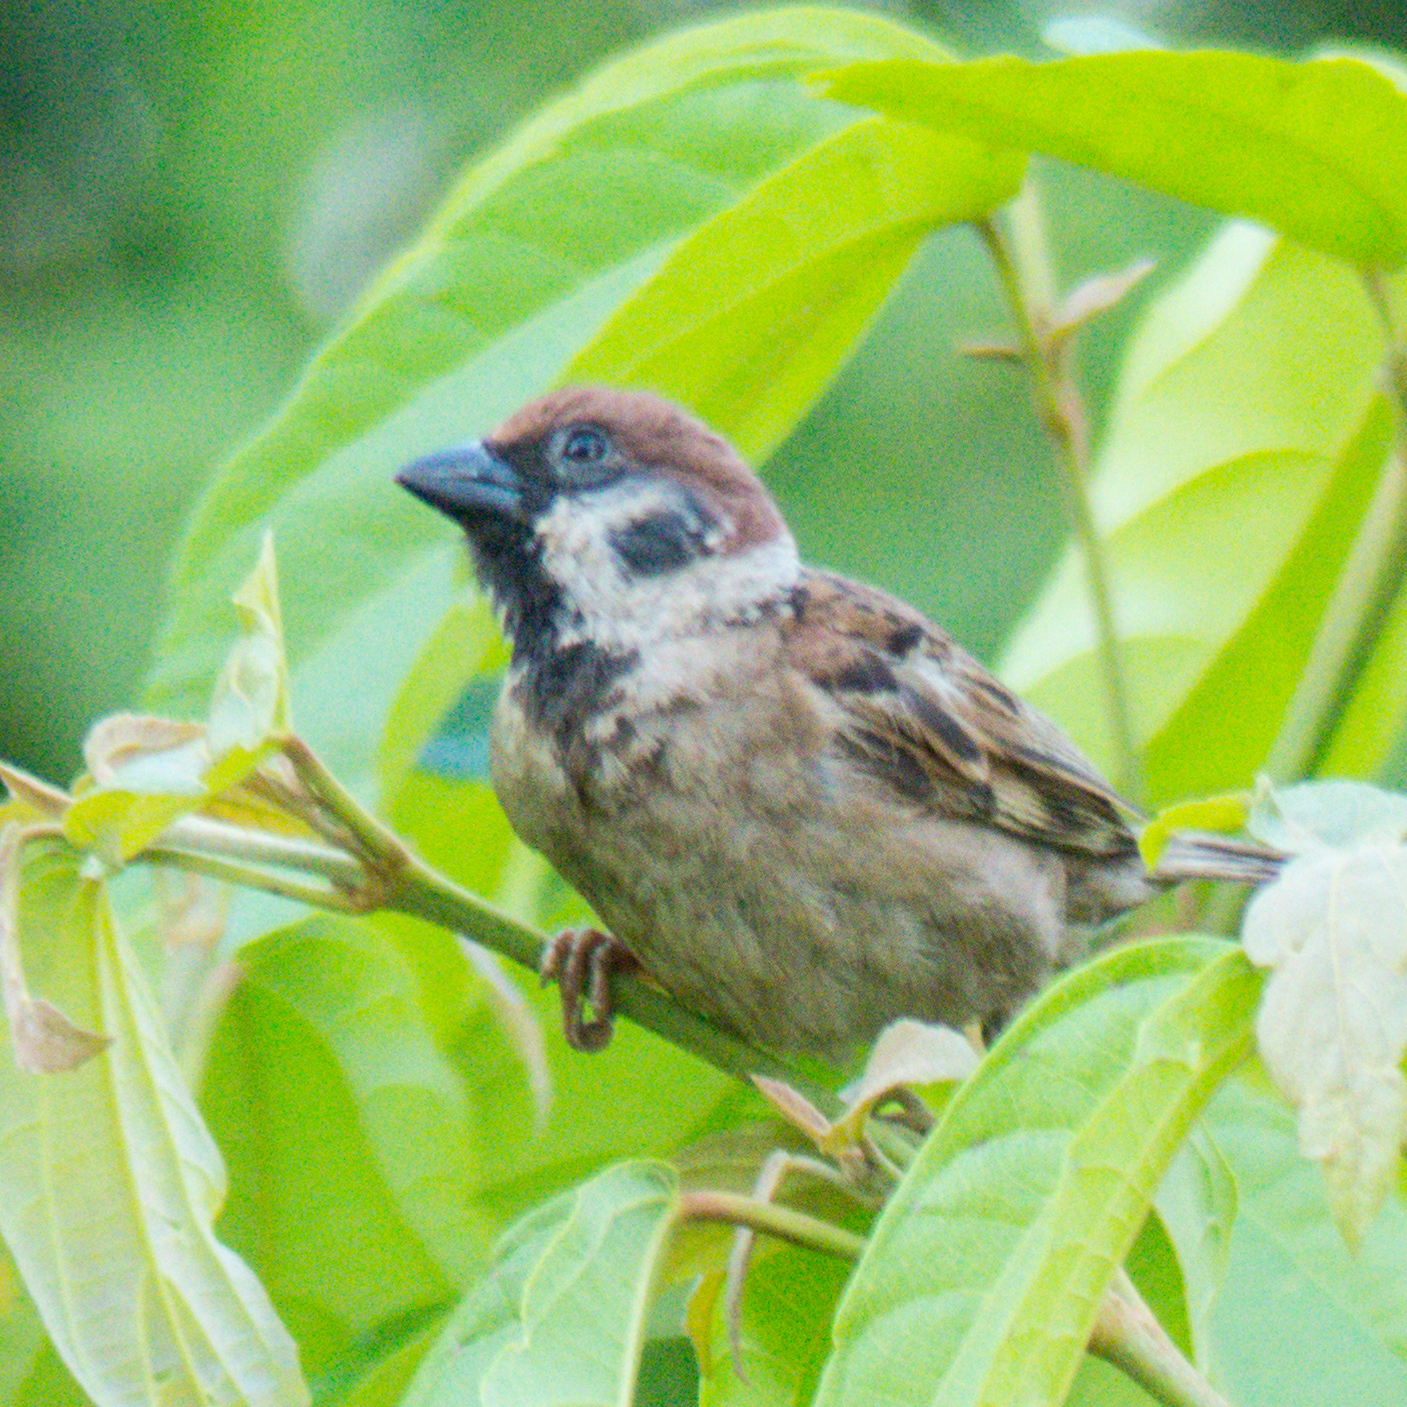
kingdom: Animalia
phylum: Chordata
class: Aves
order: Passeriformes
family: Passeridae
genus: Passer
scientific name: Passer montanus
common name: Eurasian tree sparrow
